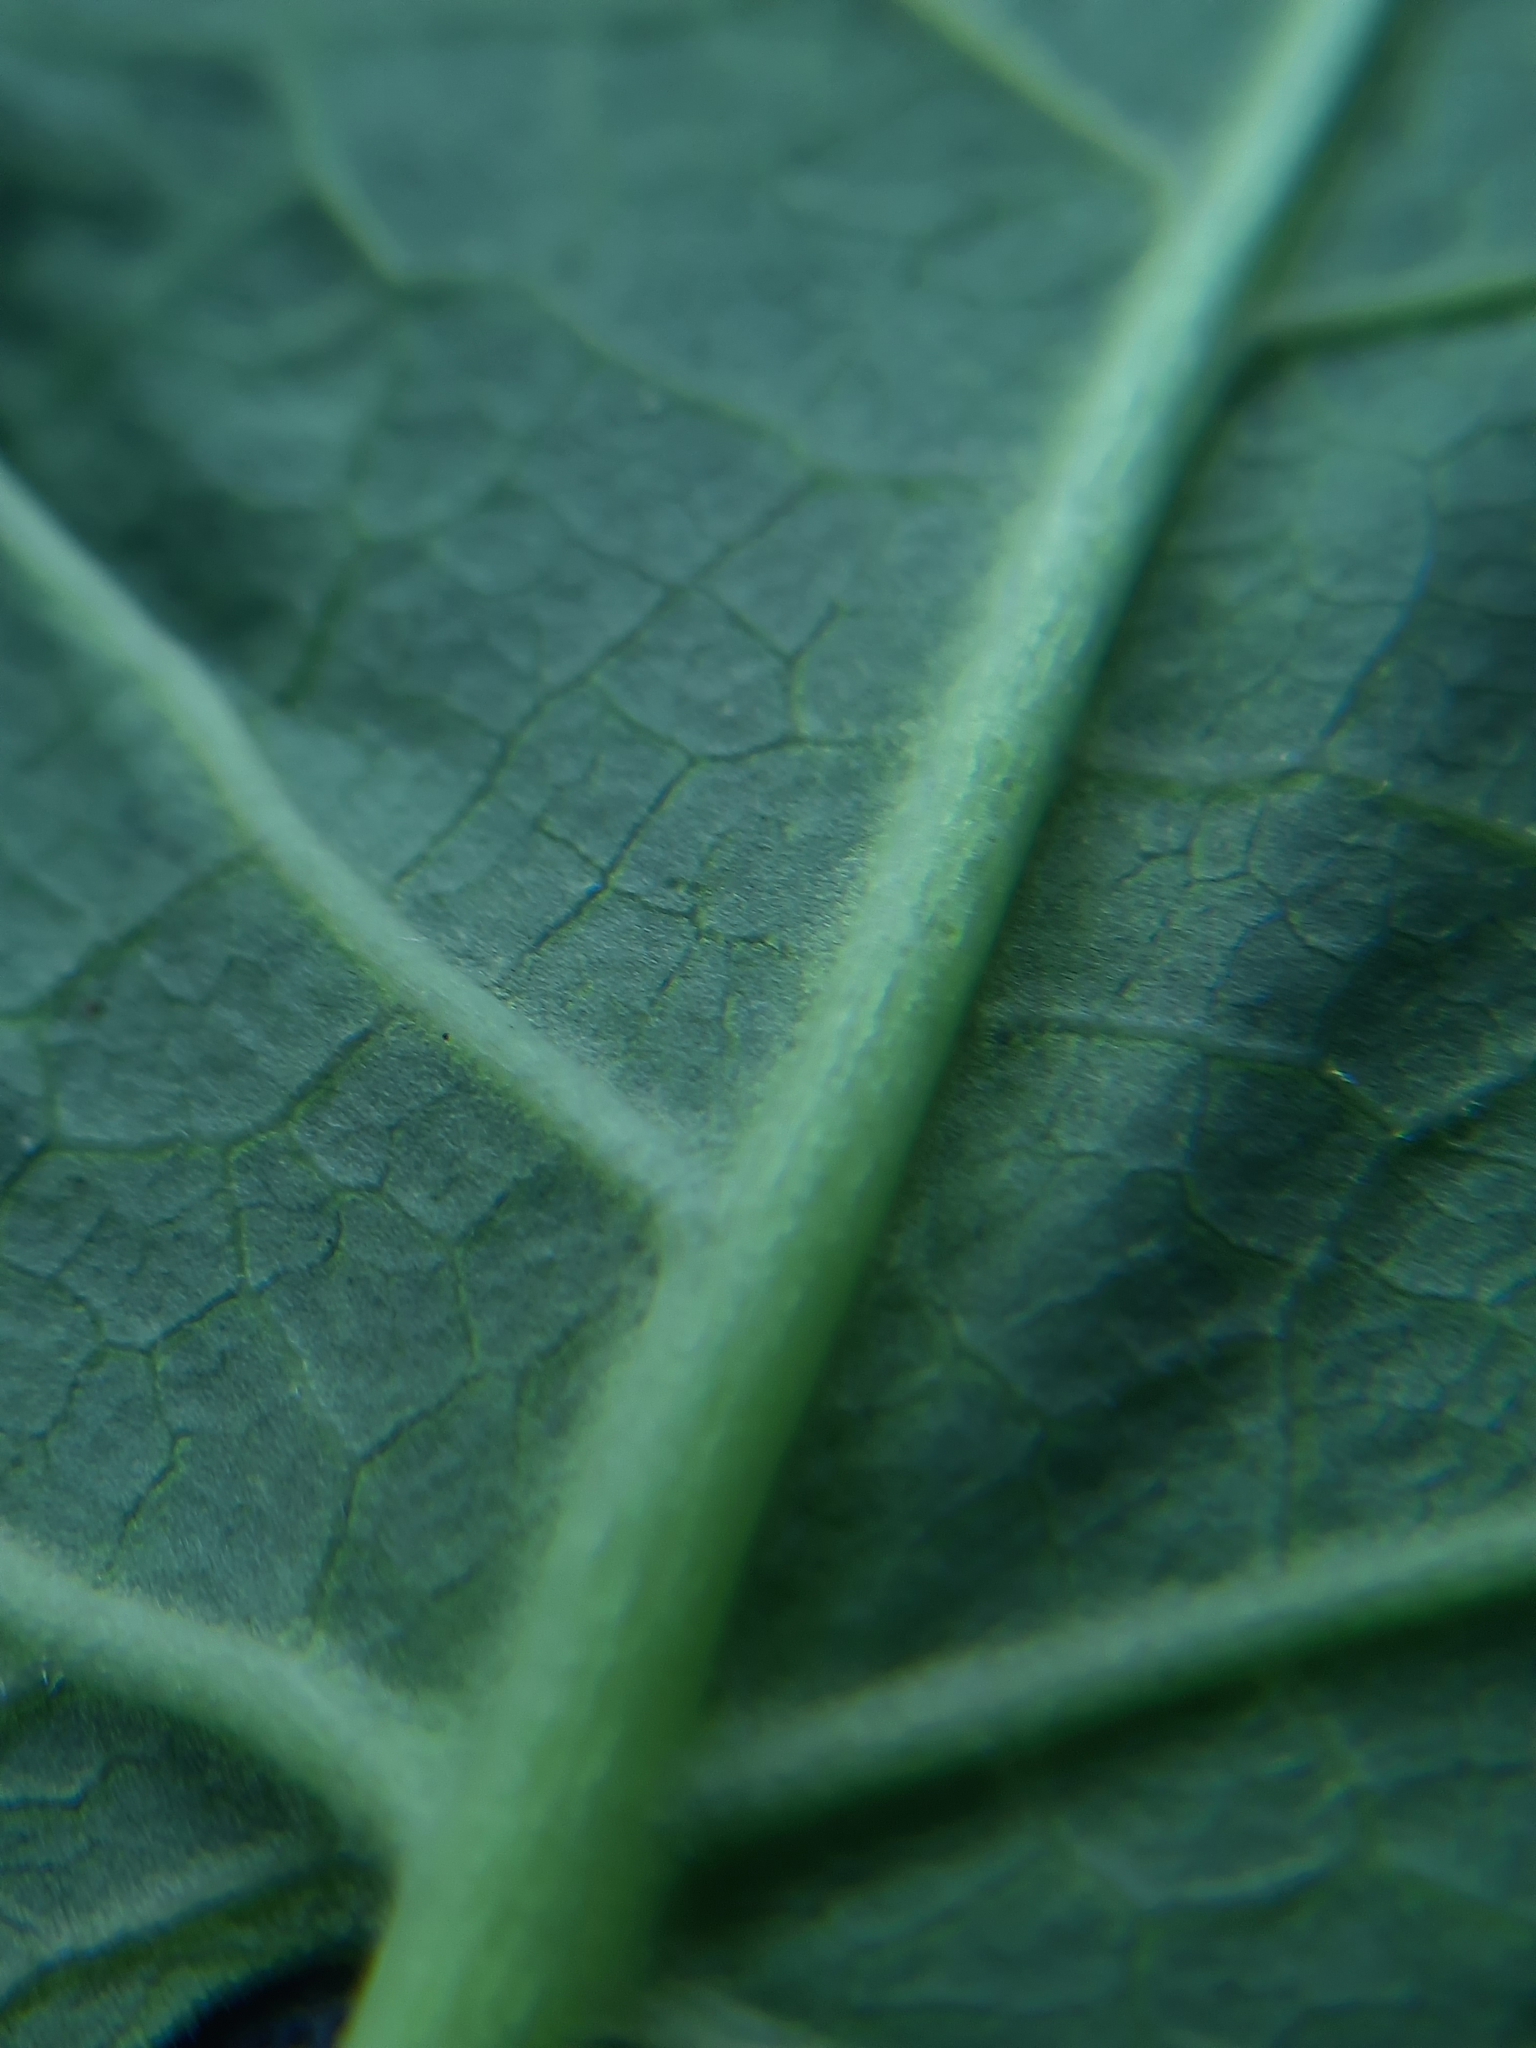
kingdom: Plantae
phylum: Tracheophyta
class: Magnoliopsida
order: Caryophyllales
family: Polygonaceae
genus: Reynoutria
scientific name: Reynoutria sachalinensis
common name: Giant knotweed
